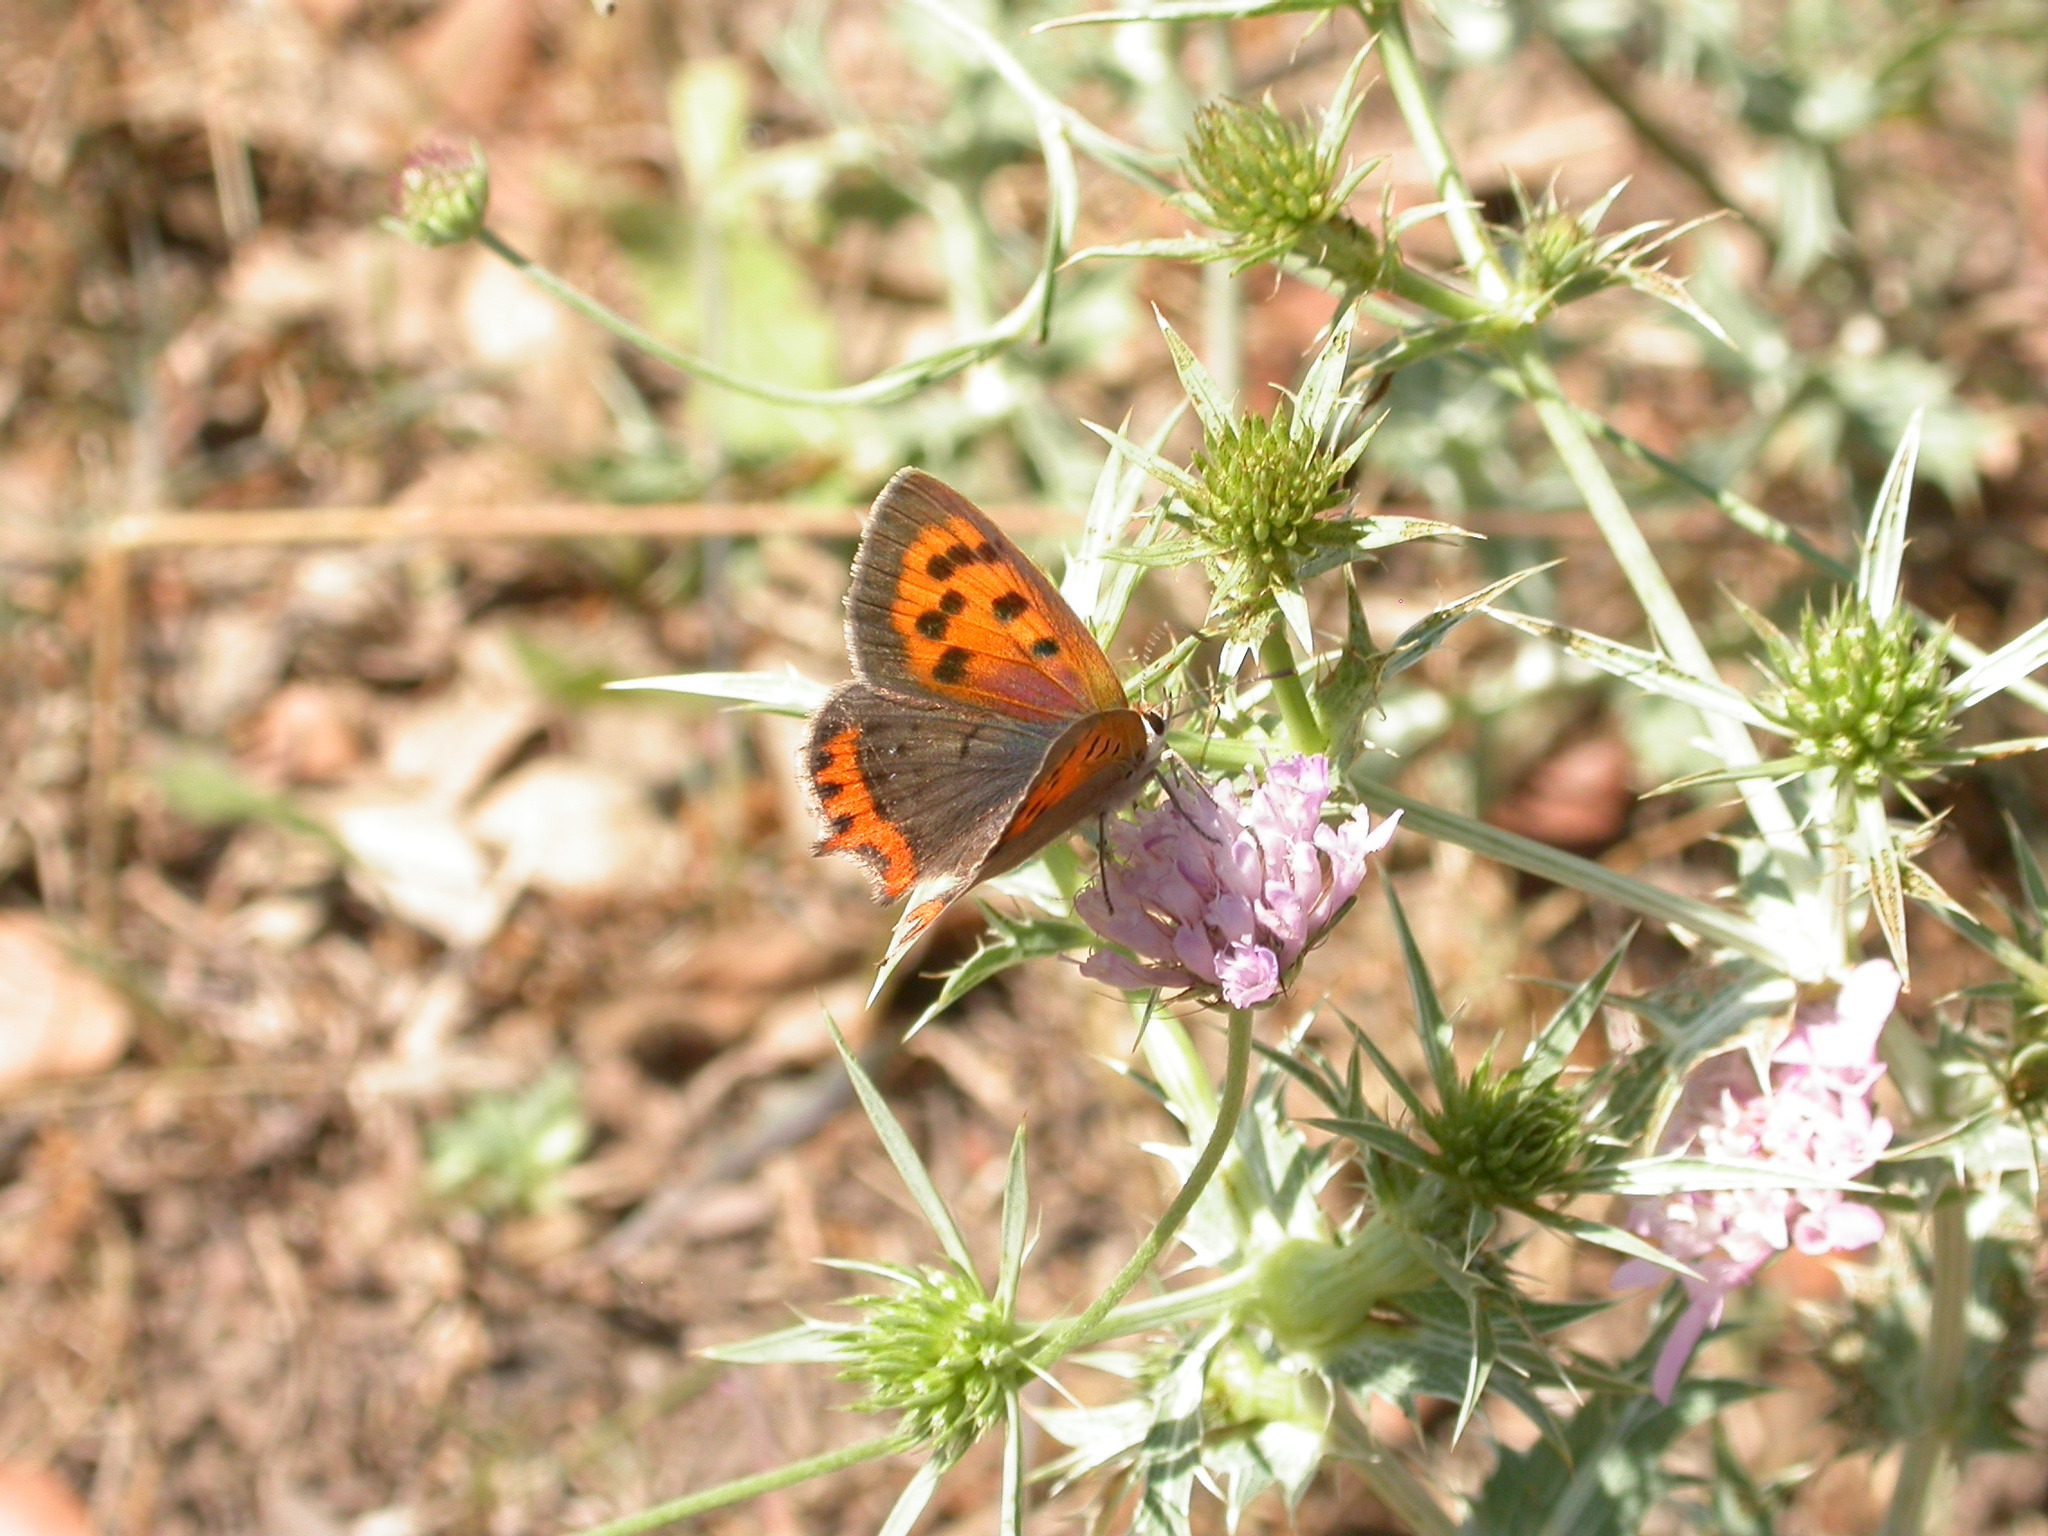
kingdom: Animalia
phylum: Arthropoda
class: Insecta
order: Lepidoptera
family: Lycaenidae
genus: Lycaena
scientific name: Lycaena phlaeas
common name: Small copper
